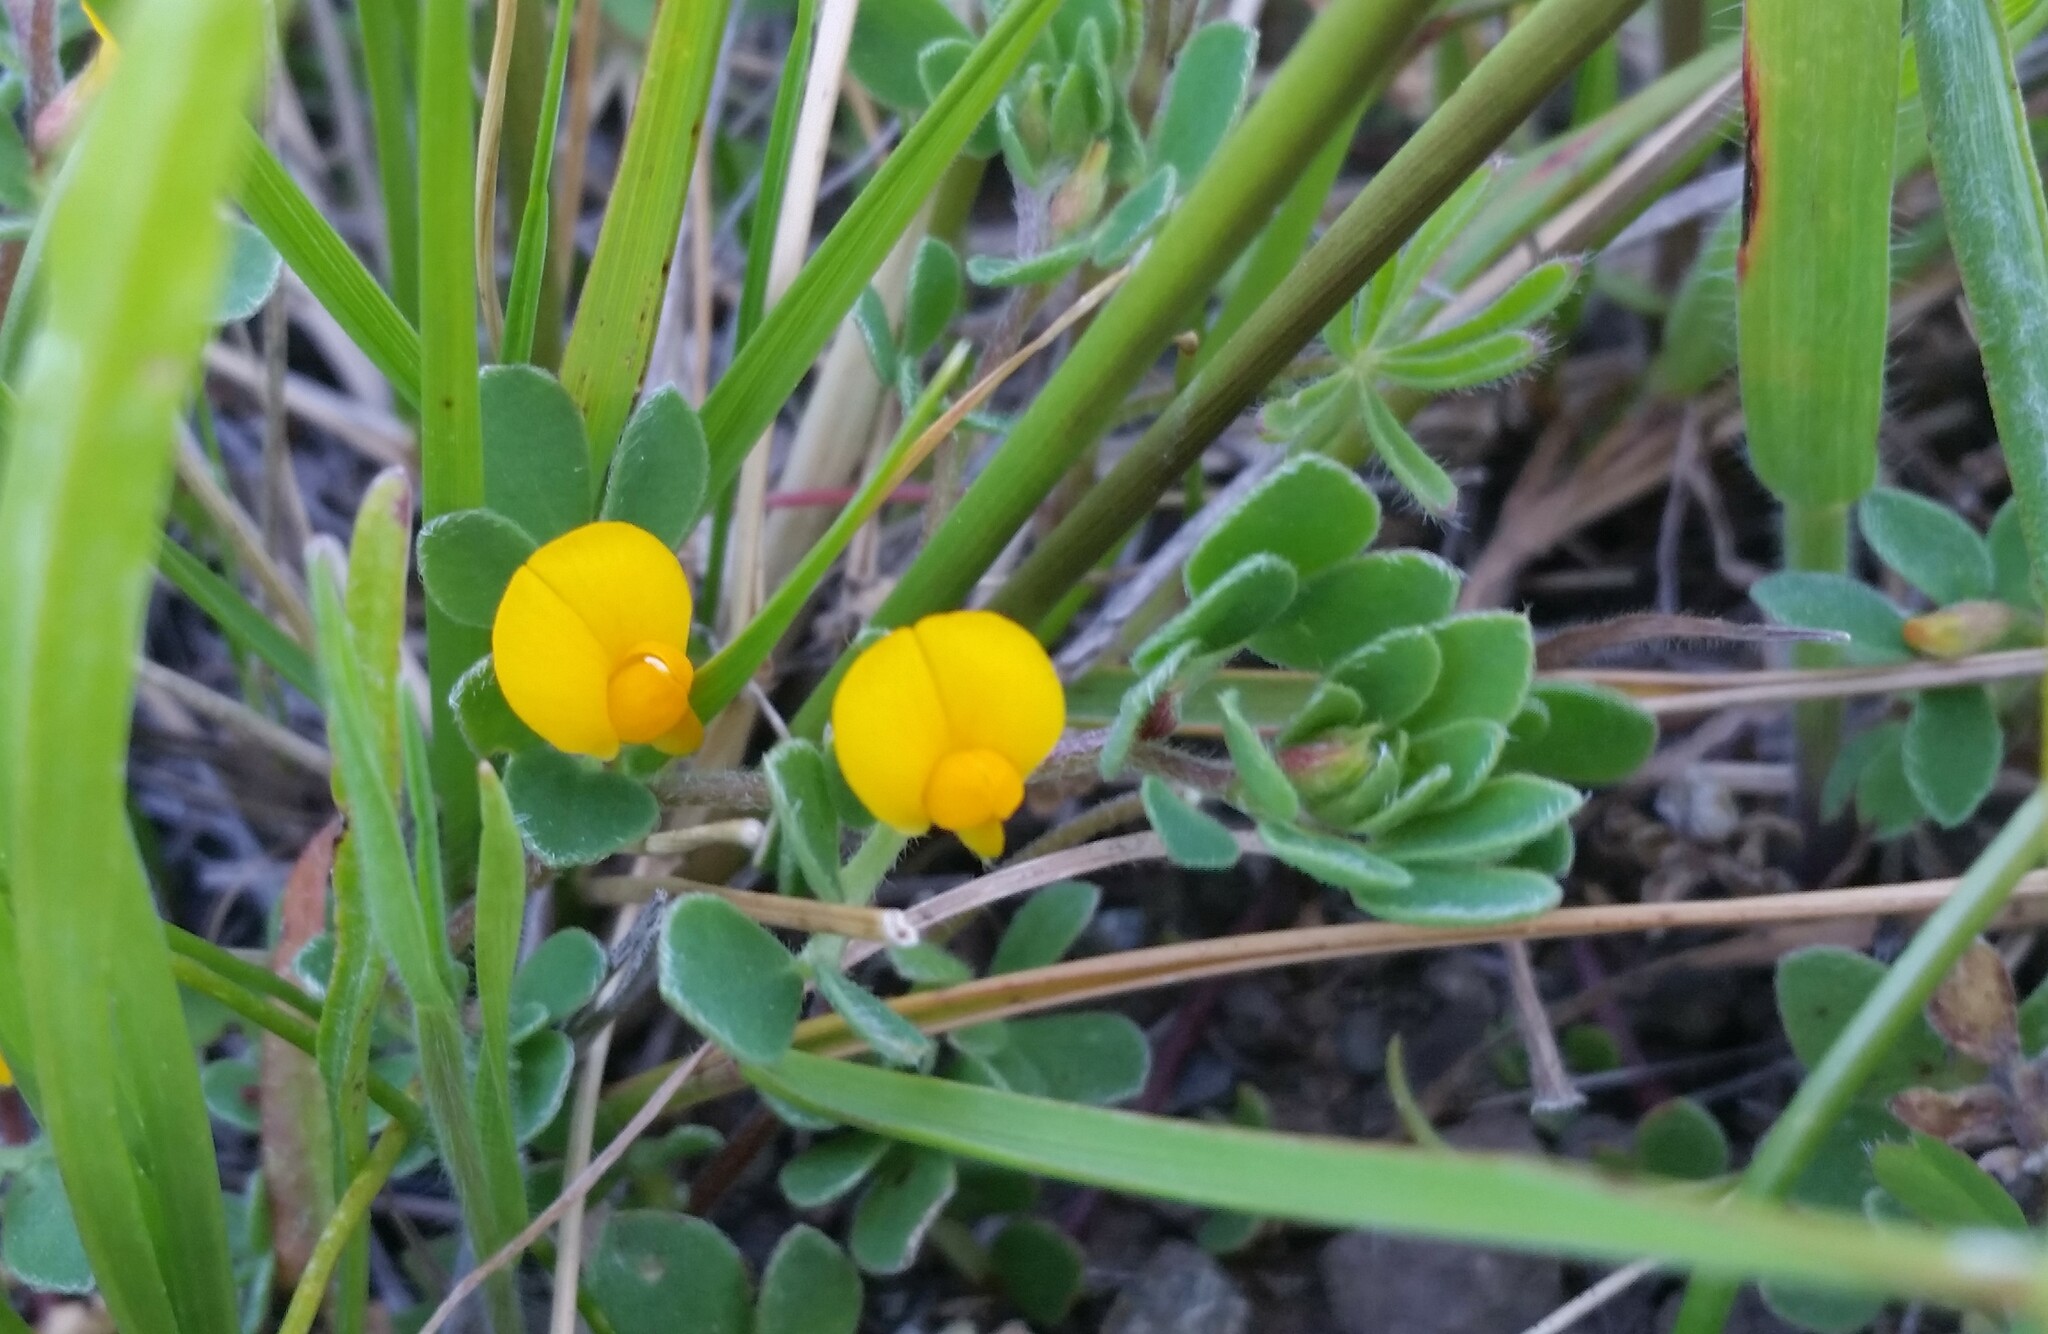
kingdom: Plantae
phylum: Tracheophyta
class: Magnoliopsida
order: Fabales
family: Fabaceae
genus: Acmispon
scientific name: Acmispon wrangelianus
